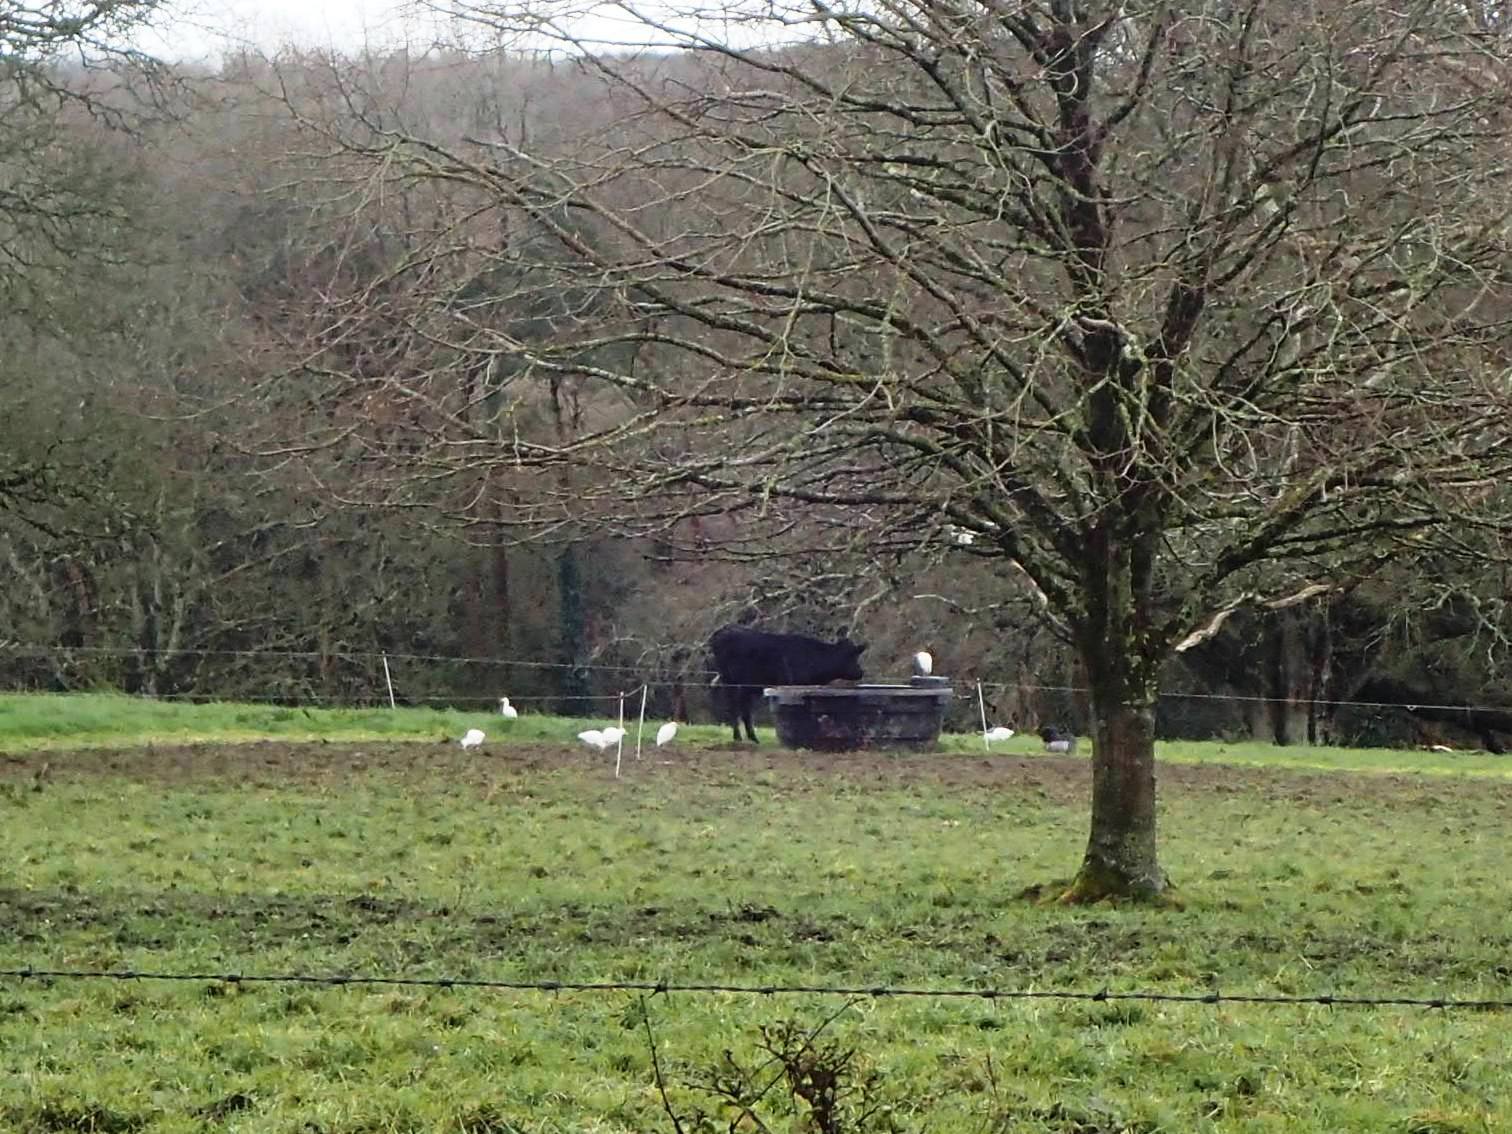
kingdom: Animalia
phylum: Chordata
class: Aves
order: Pelecaniformes
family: Ardeidae
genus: Bubulcus
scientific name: Bubulcus ibis
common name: Cattle egret
